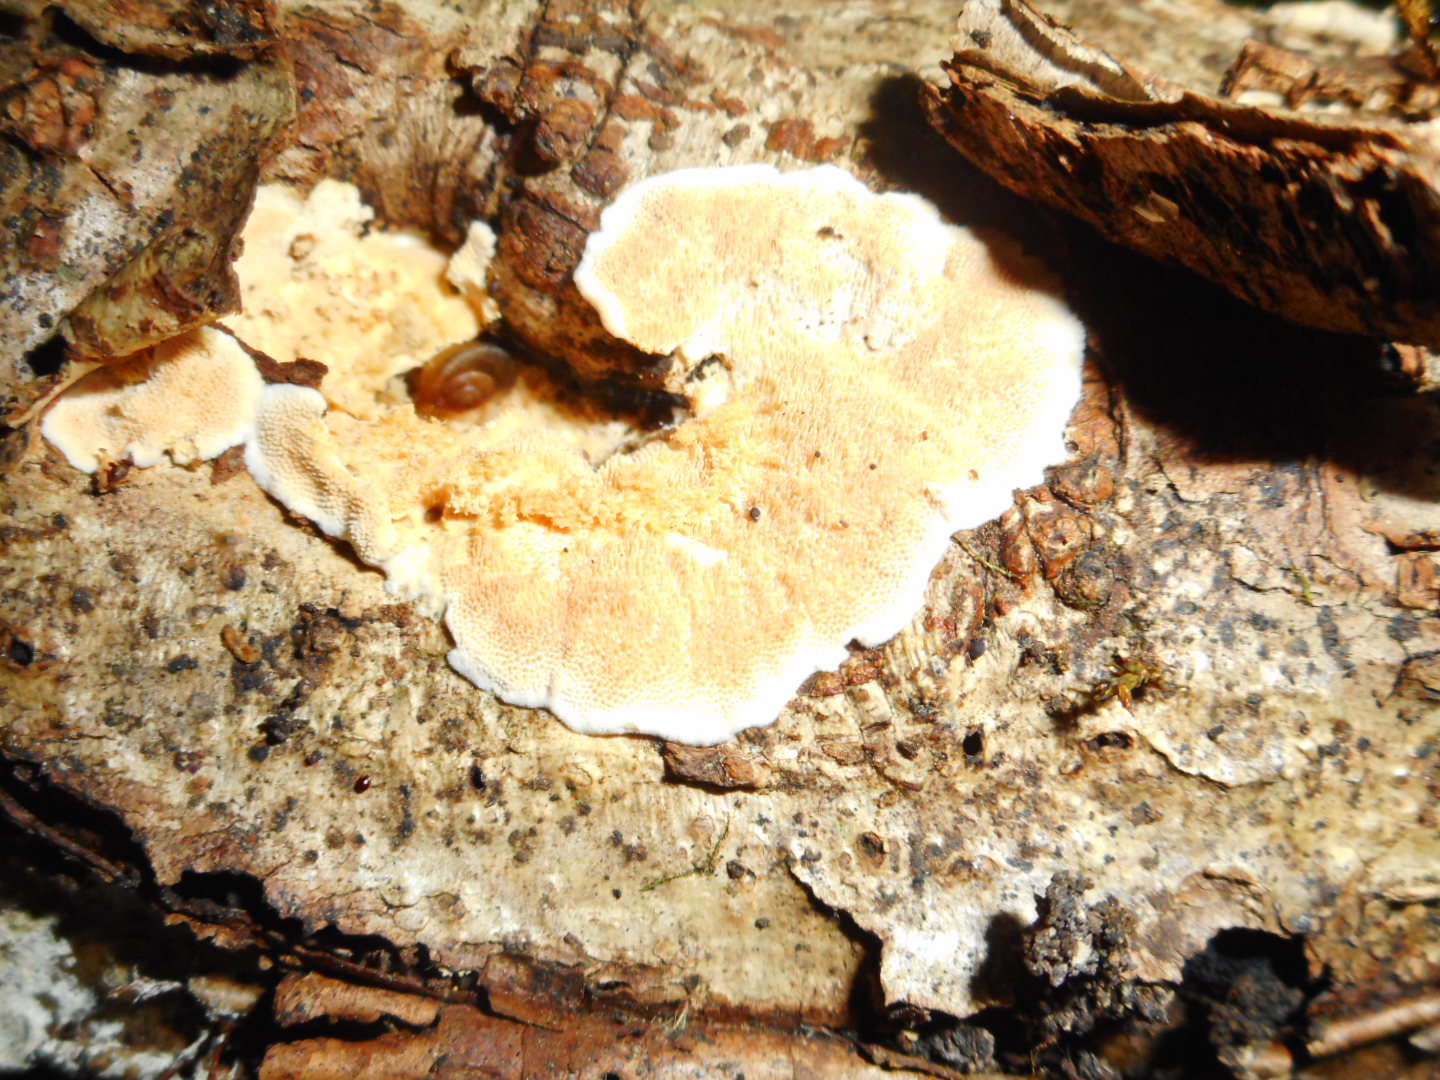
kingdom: Fungi
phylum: Basidiomycota
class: Agaricomycetes
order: Polyporales
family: Steccherinaceae
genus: Steccherinum
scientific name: Steccherinum ochraceum
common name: Ochre spreading tooth
